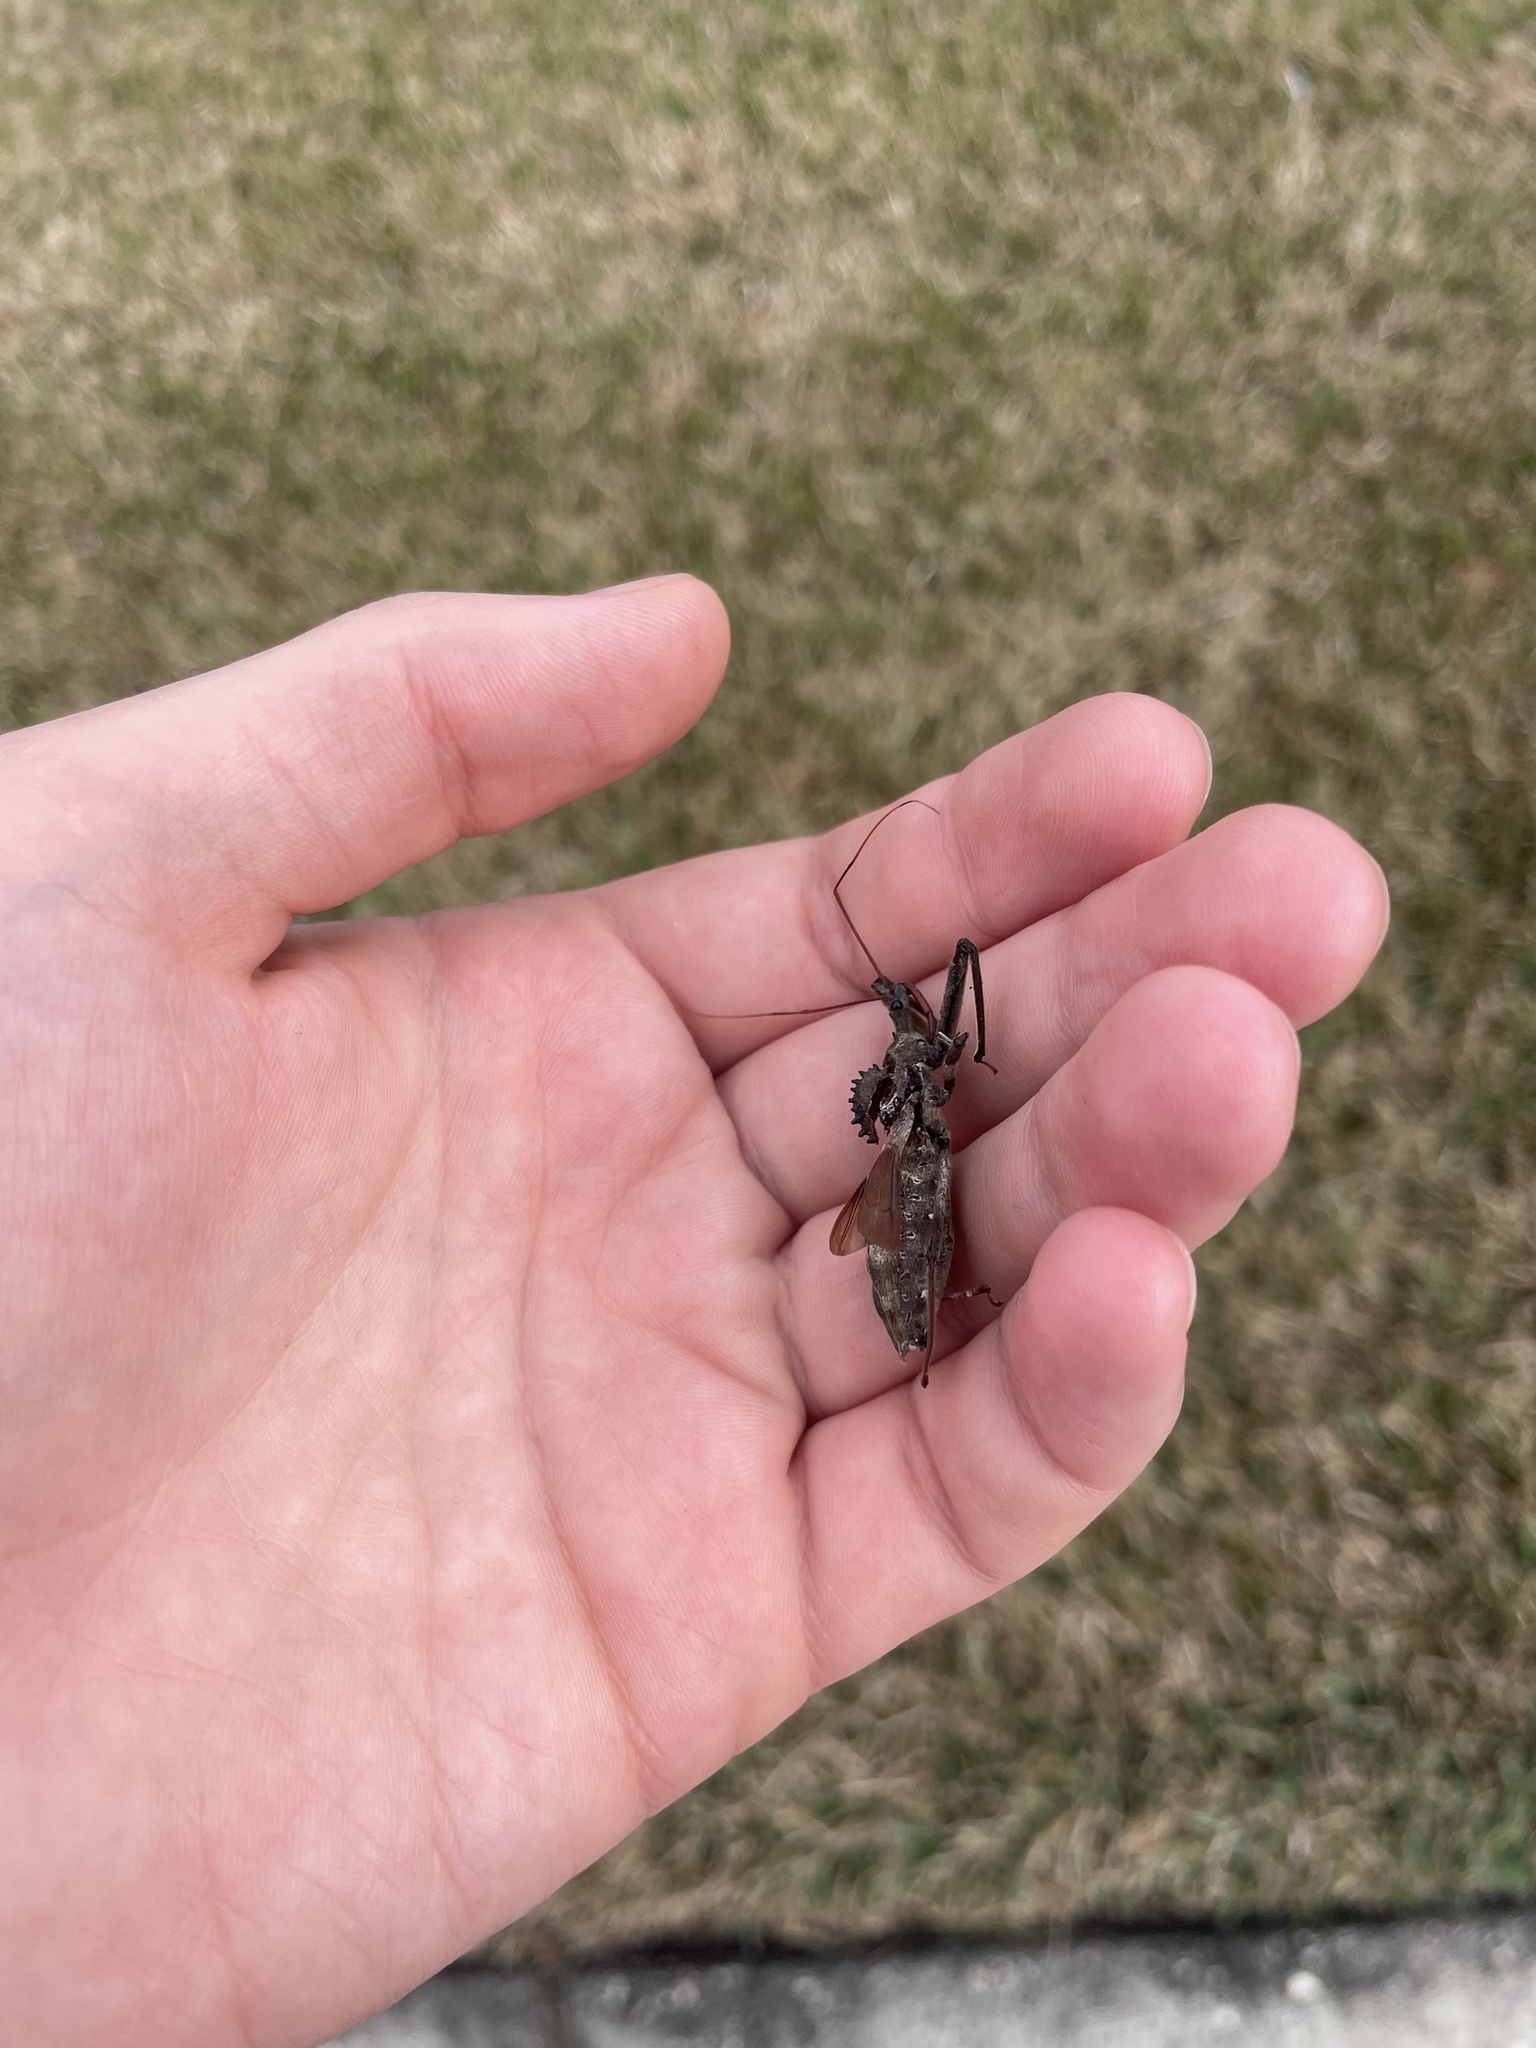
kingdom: Animalia
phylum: Arthropoda
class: Insecta
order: Hemiptera
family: Reduviidae
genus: Arilus
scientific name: Arilus cristatus
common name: North american wheel bug
